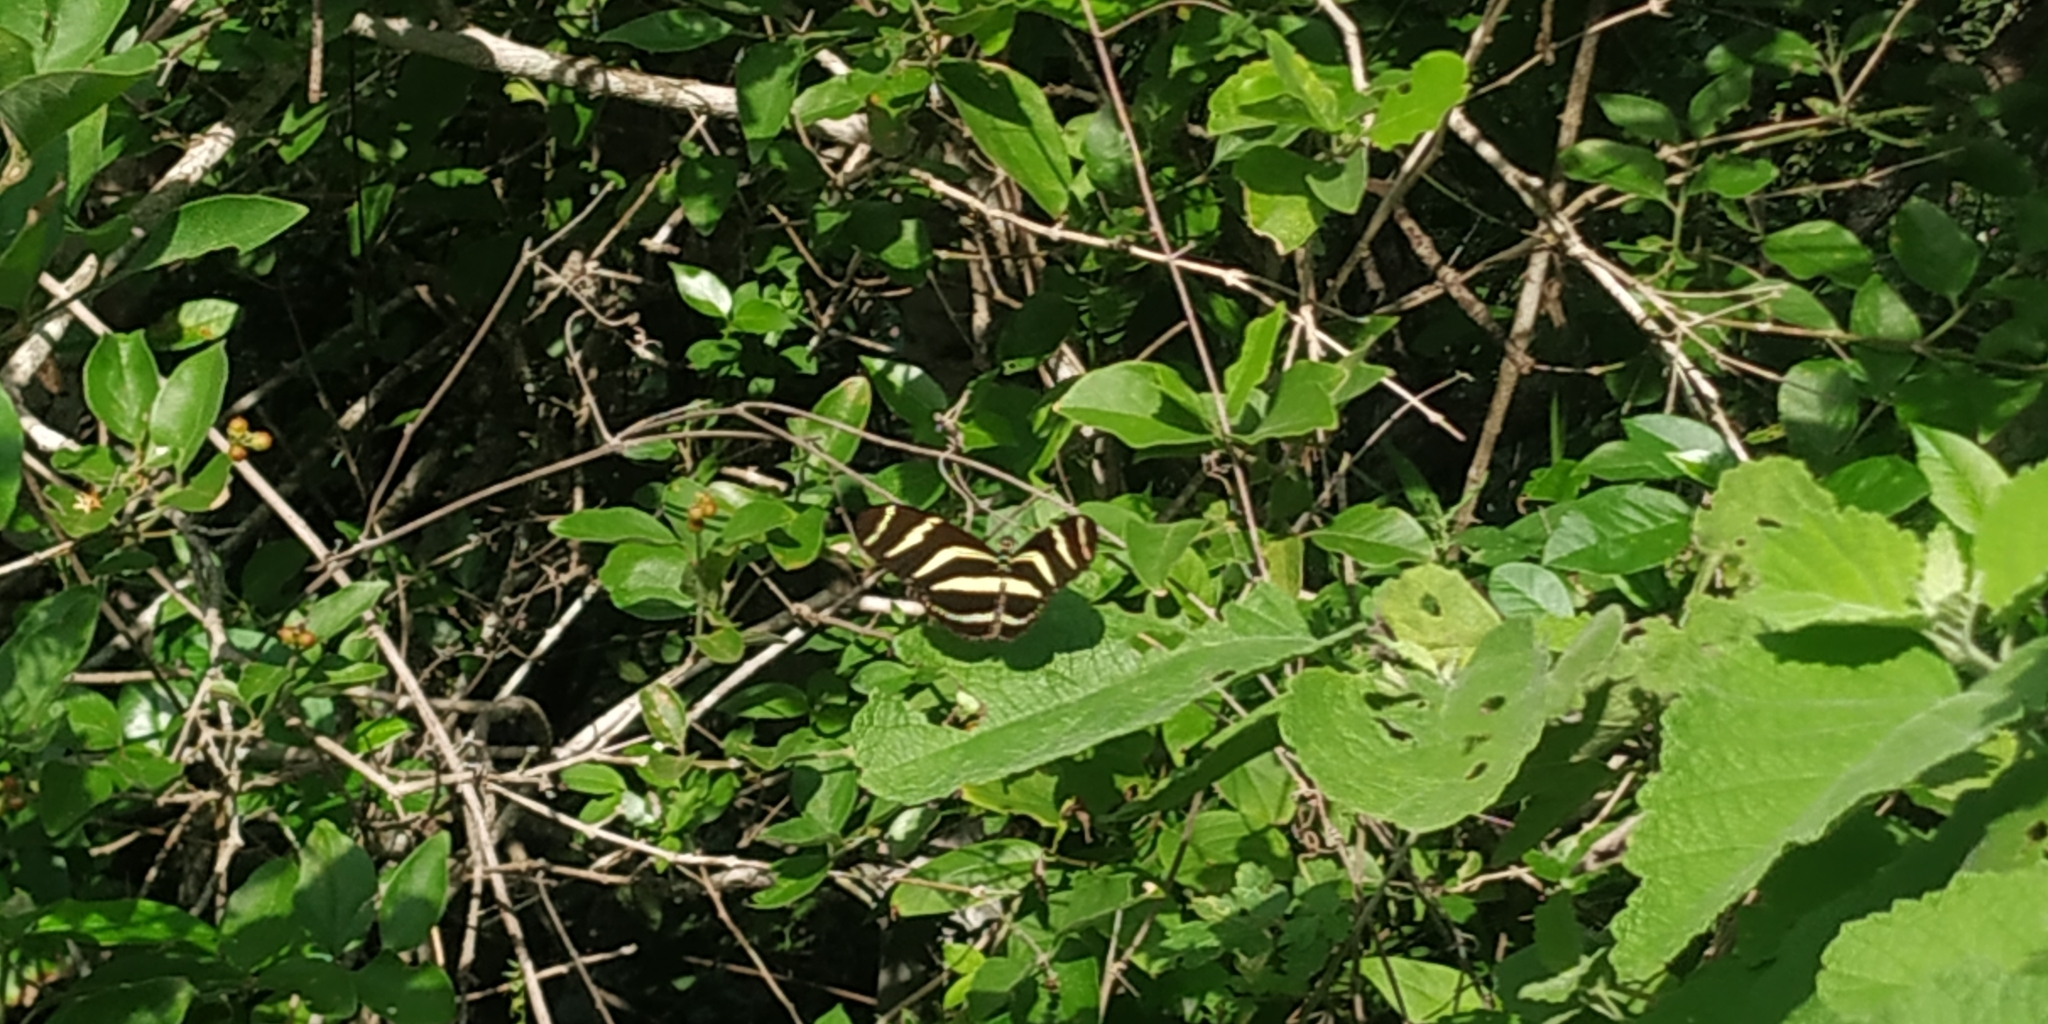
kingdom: Animalia
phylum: Arthropoda
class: Insecta
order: Lepidoptera
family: Nymphalidae
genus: Heliconius
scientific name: Heliconius charithonia
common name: Zebra long wing
